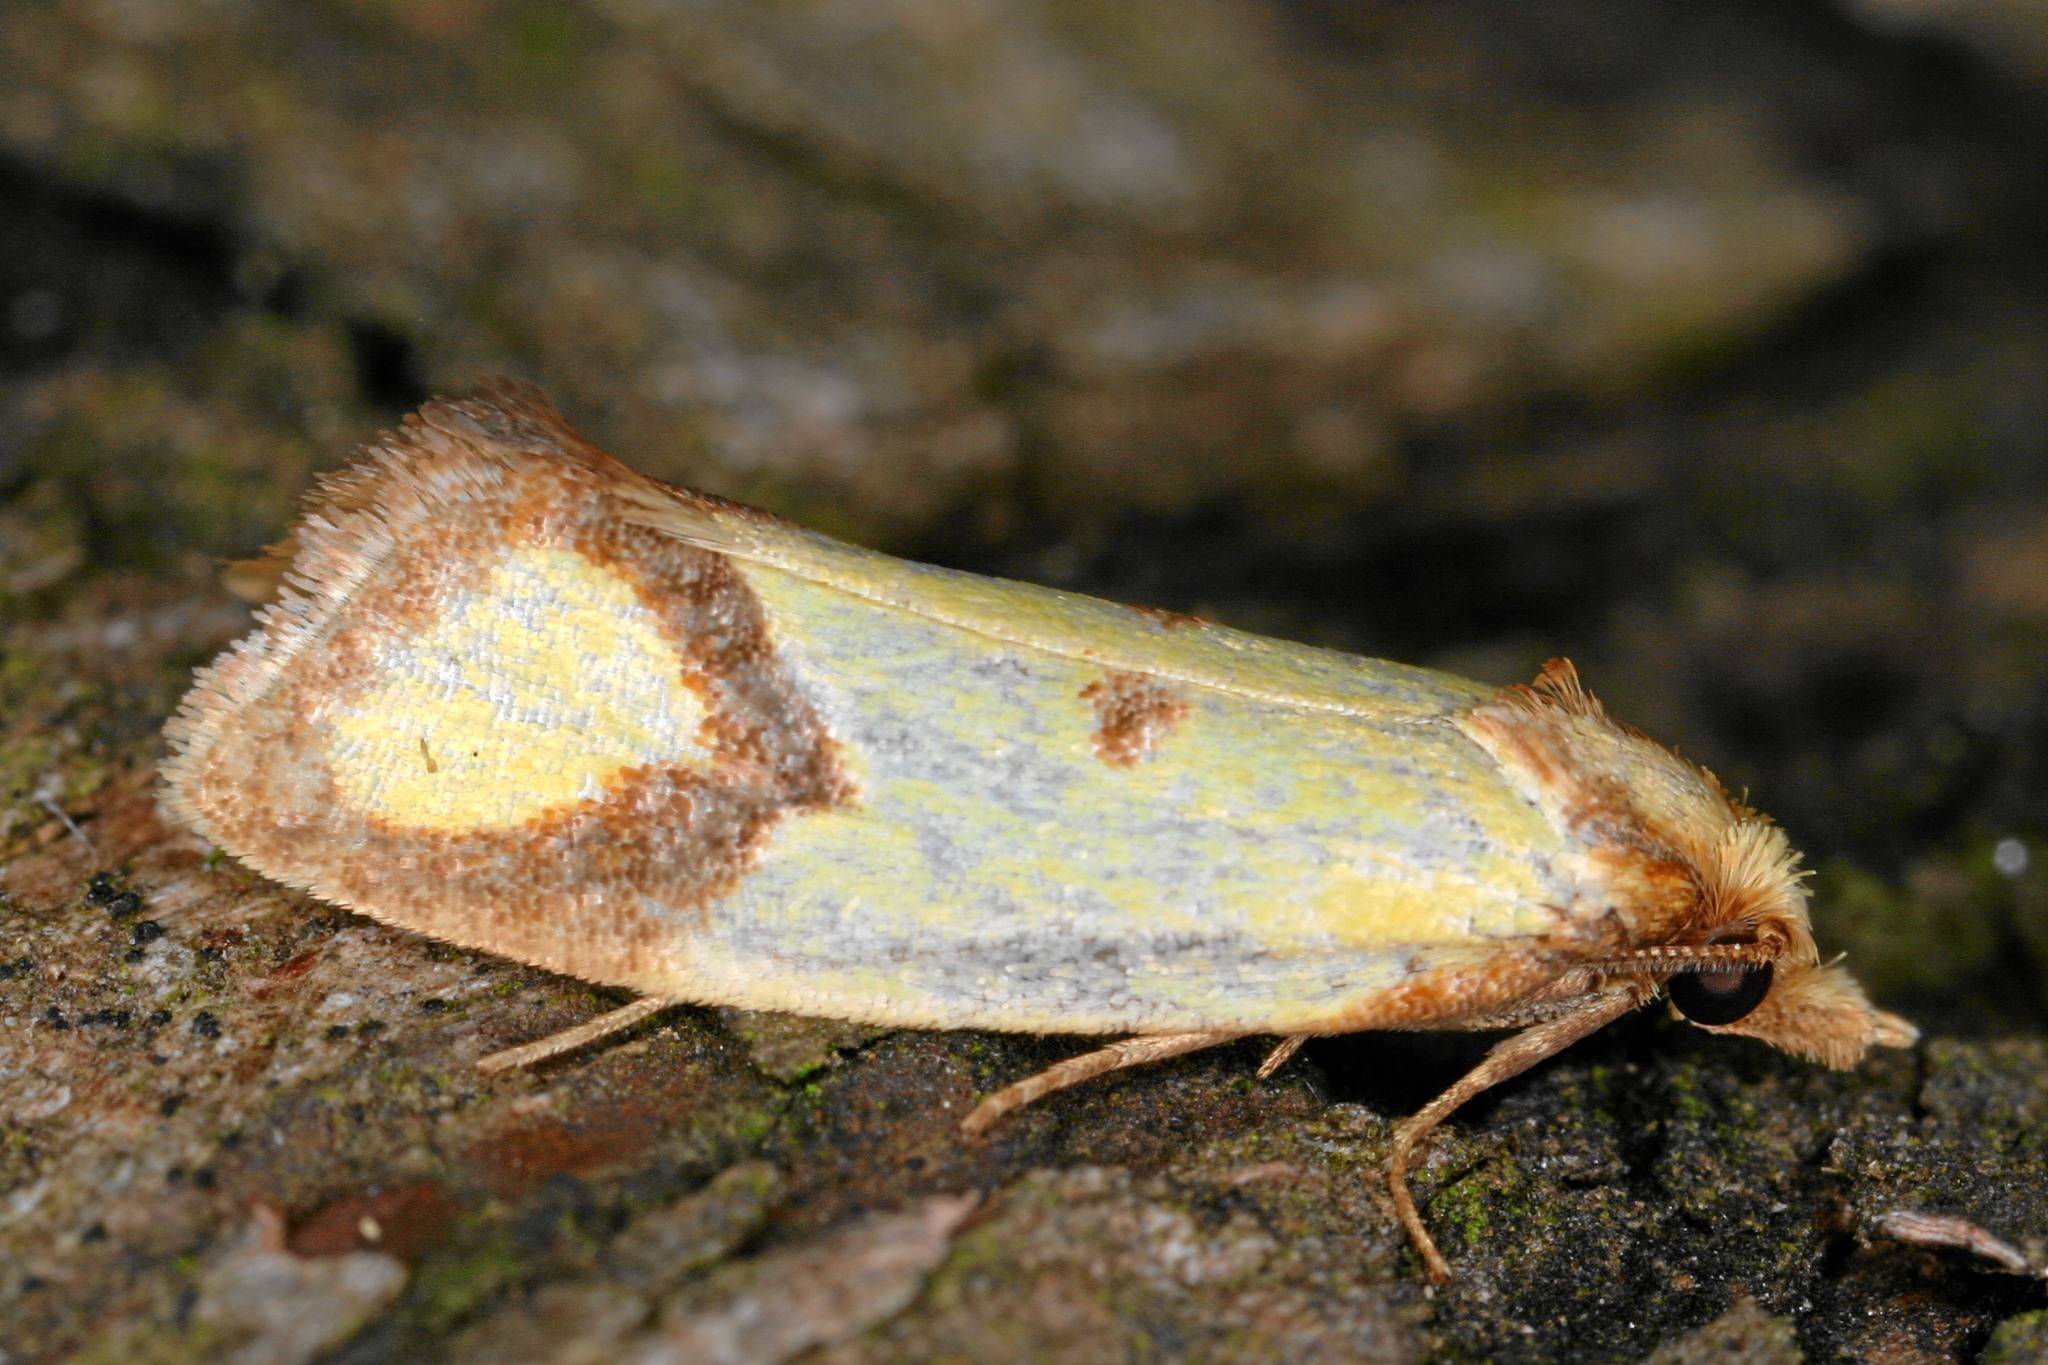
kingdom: Animalia
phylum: Arthropoda
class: Insecta
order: Lepidoptera
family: Tortricidae
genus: Agapeta
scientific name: Agapeta zoegana
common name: Sulfur knapweed root moth
